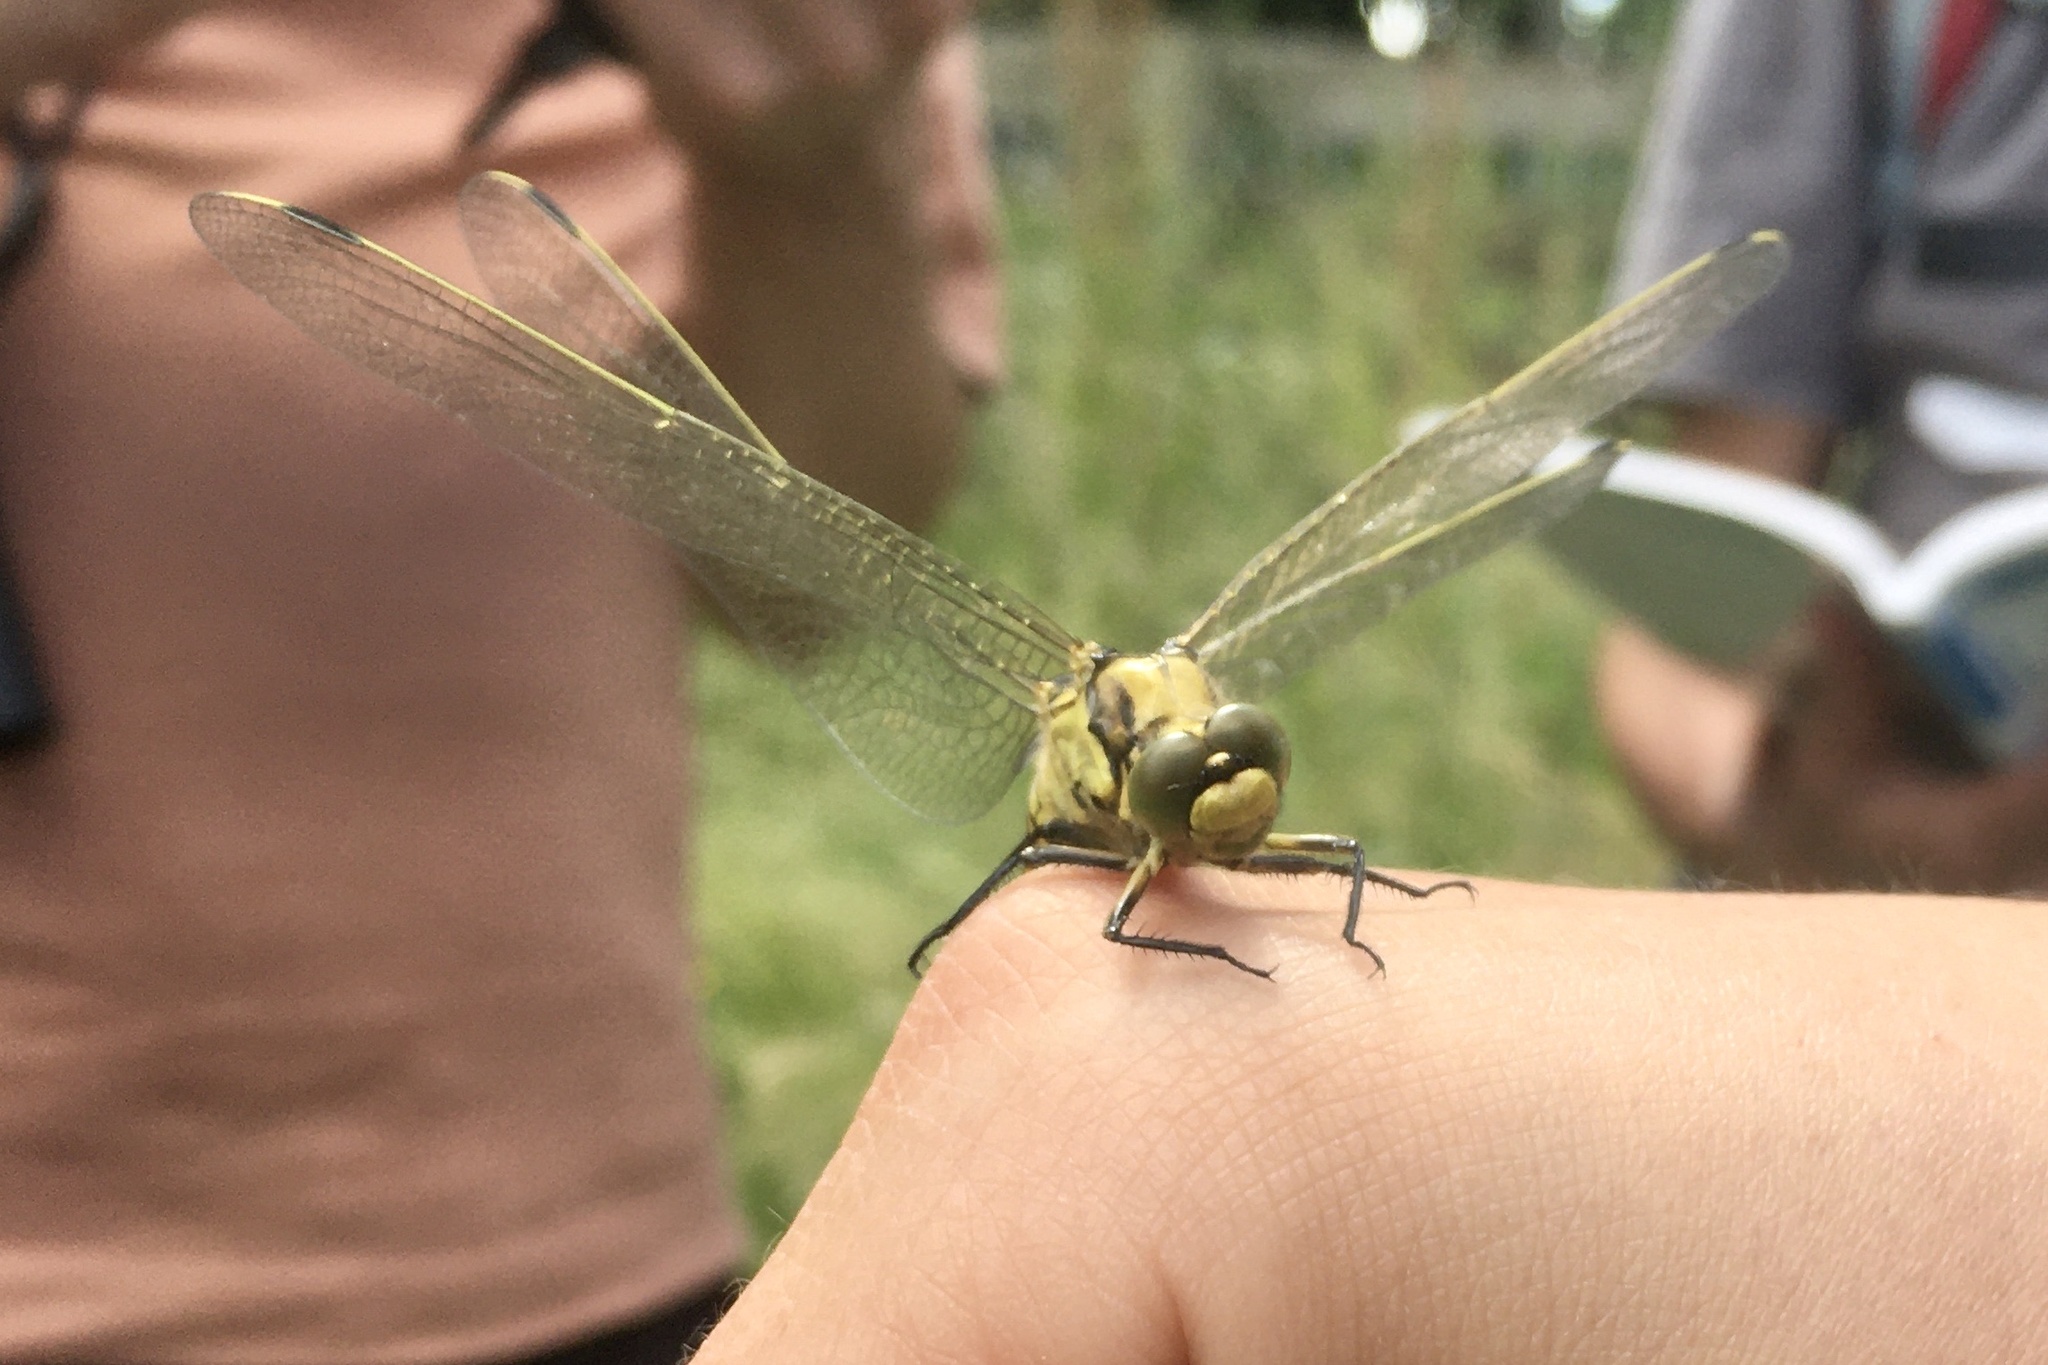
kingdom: Animalia
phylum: Arthropoda
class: Insecta
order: Odonata
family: Libellulidae
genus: Orthetrum
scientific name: Orthetrum cancellatum
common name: Black-tailed skimmer
